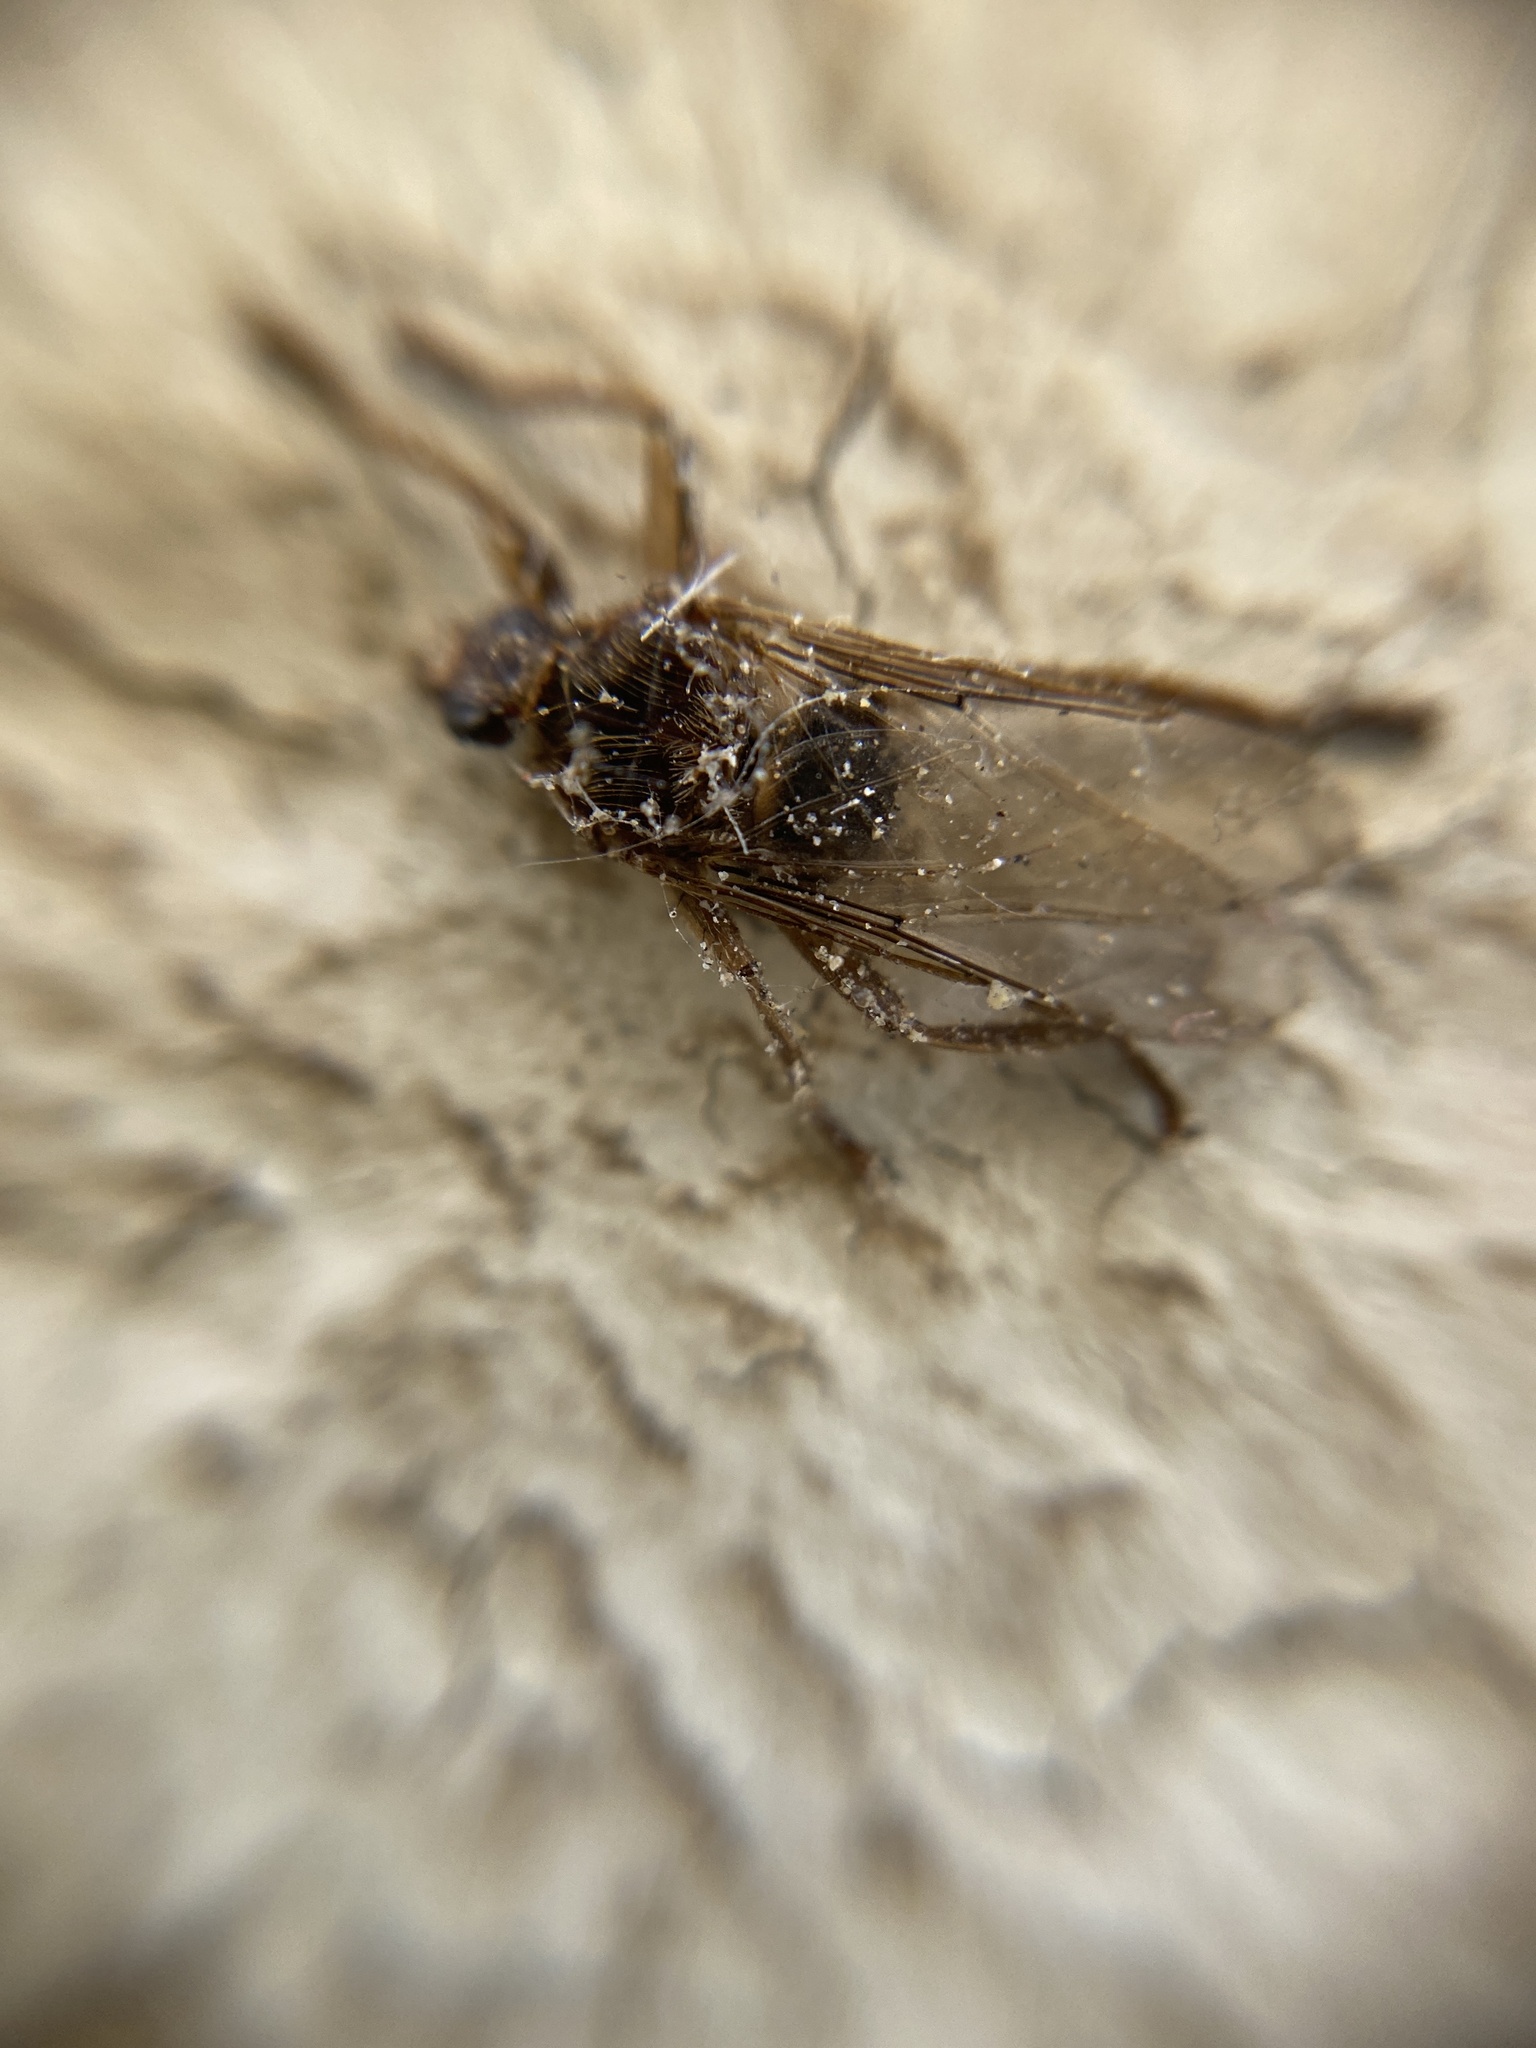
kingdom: Animalia
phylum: Arthropoda
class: Insecta
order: Diptera
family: Hippoboscidae
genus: Pseudolynchia
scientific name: Pseudolynchia canariensis
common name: Louse fly
